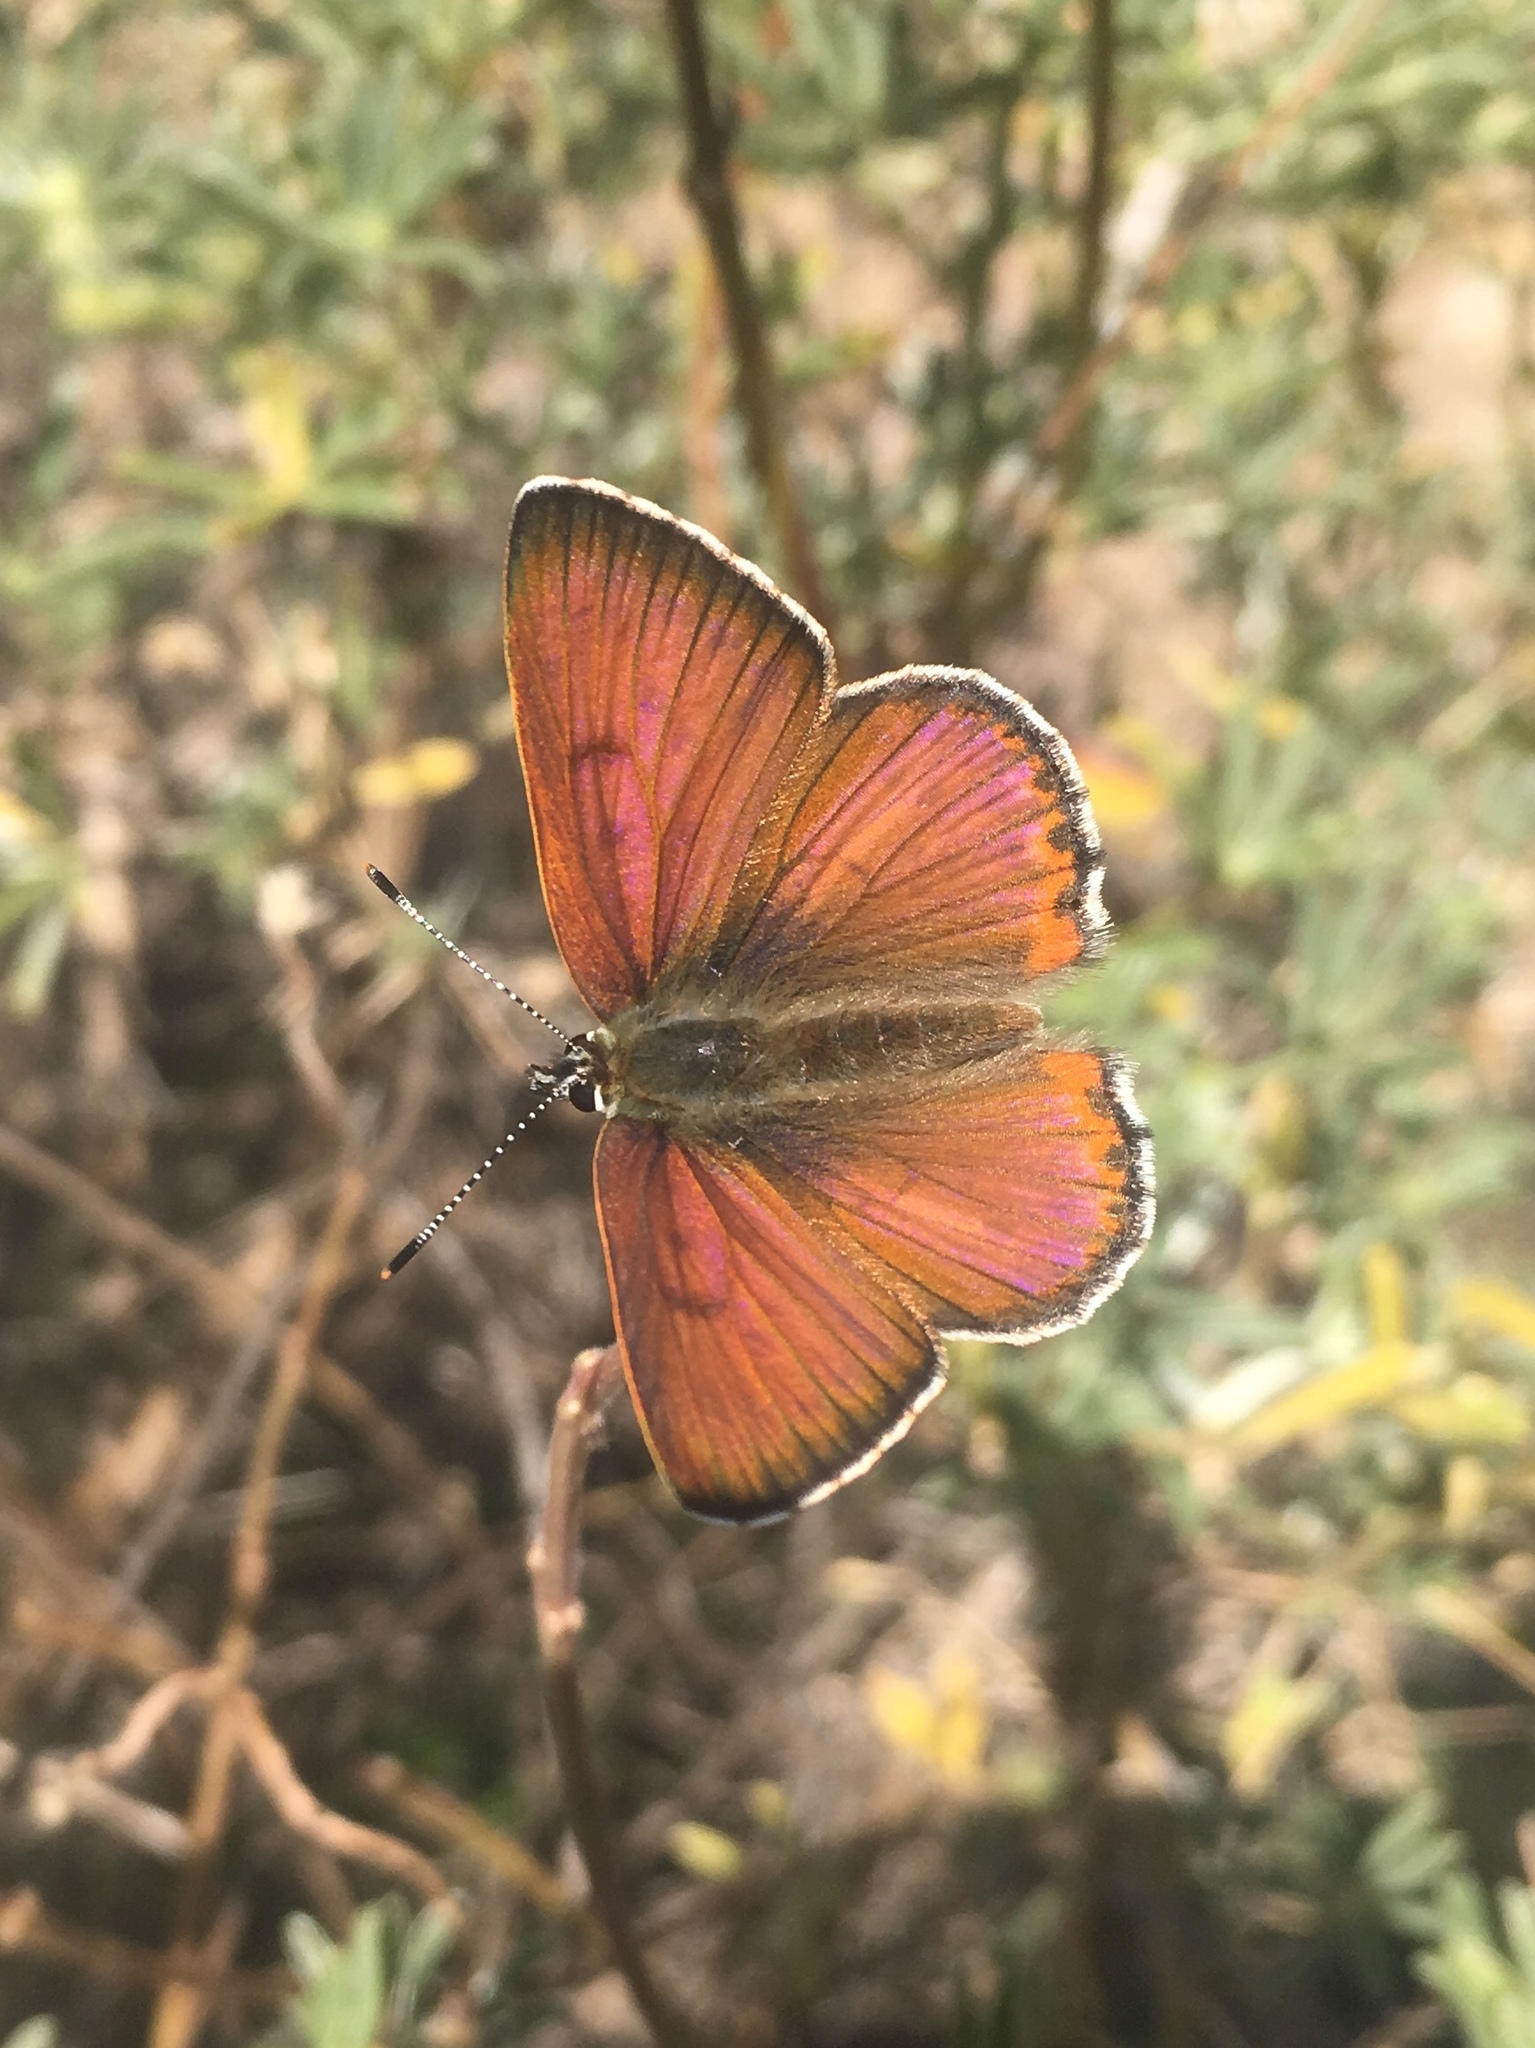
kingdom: Animalia
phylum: Arthropoda
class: Insecta
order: Lepidoptera
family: Lycaenidae
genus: Tharsalea
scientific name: Tharsalea gorgon
